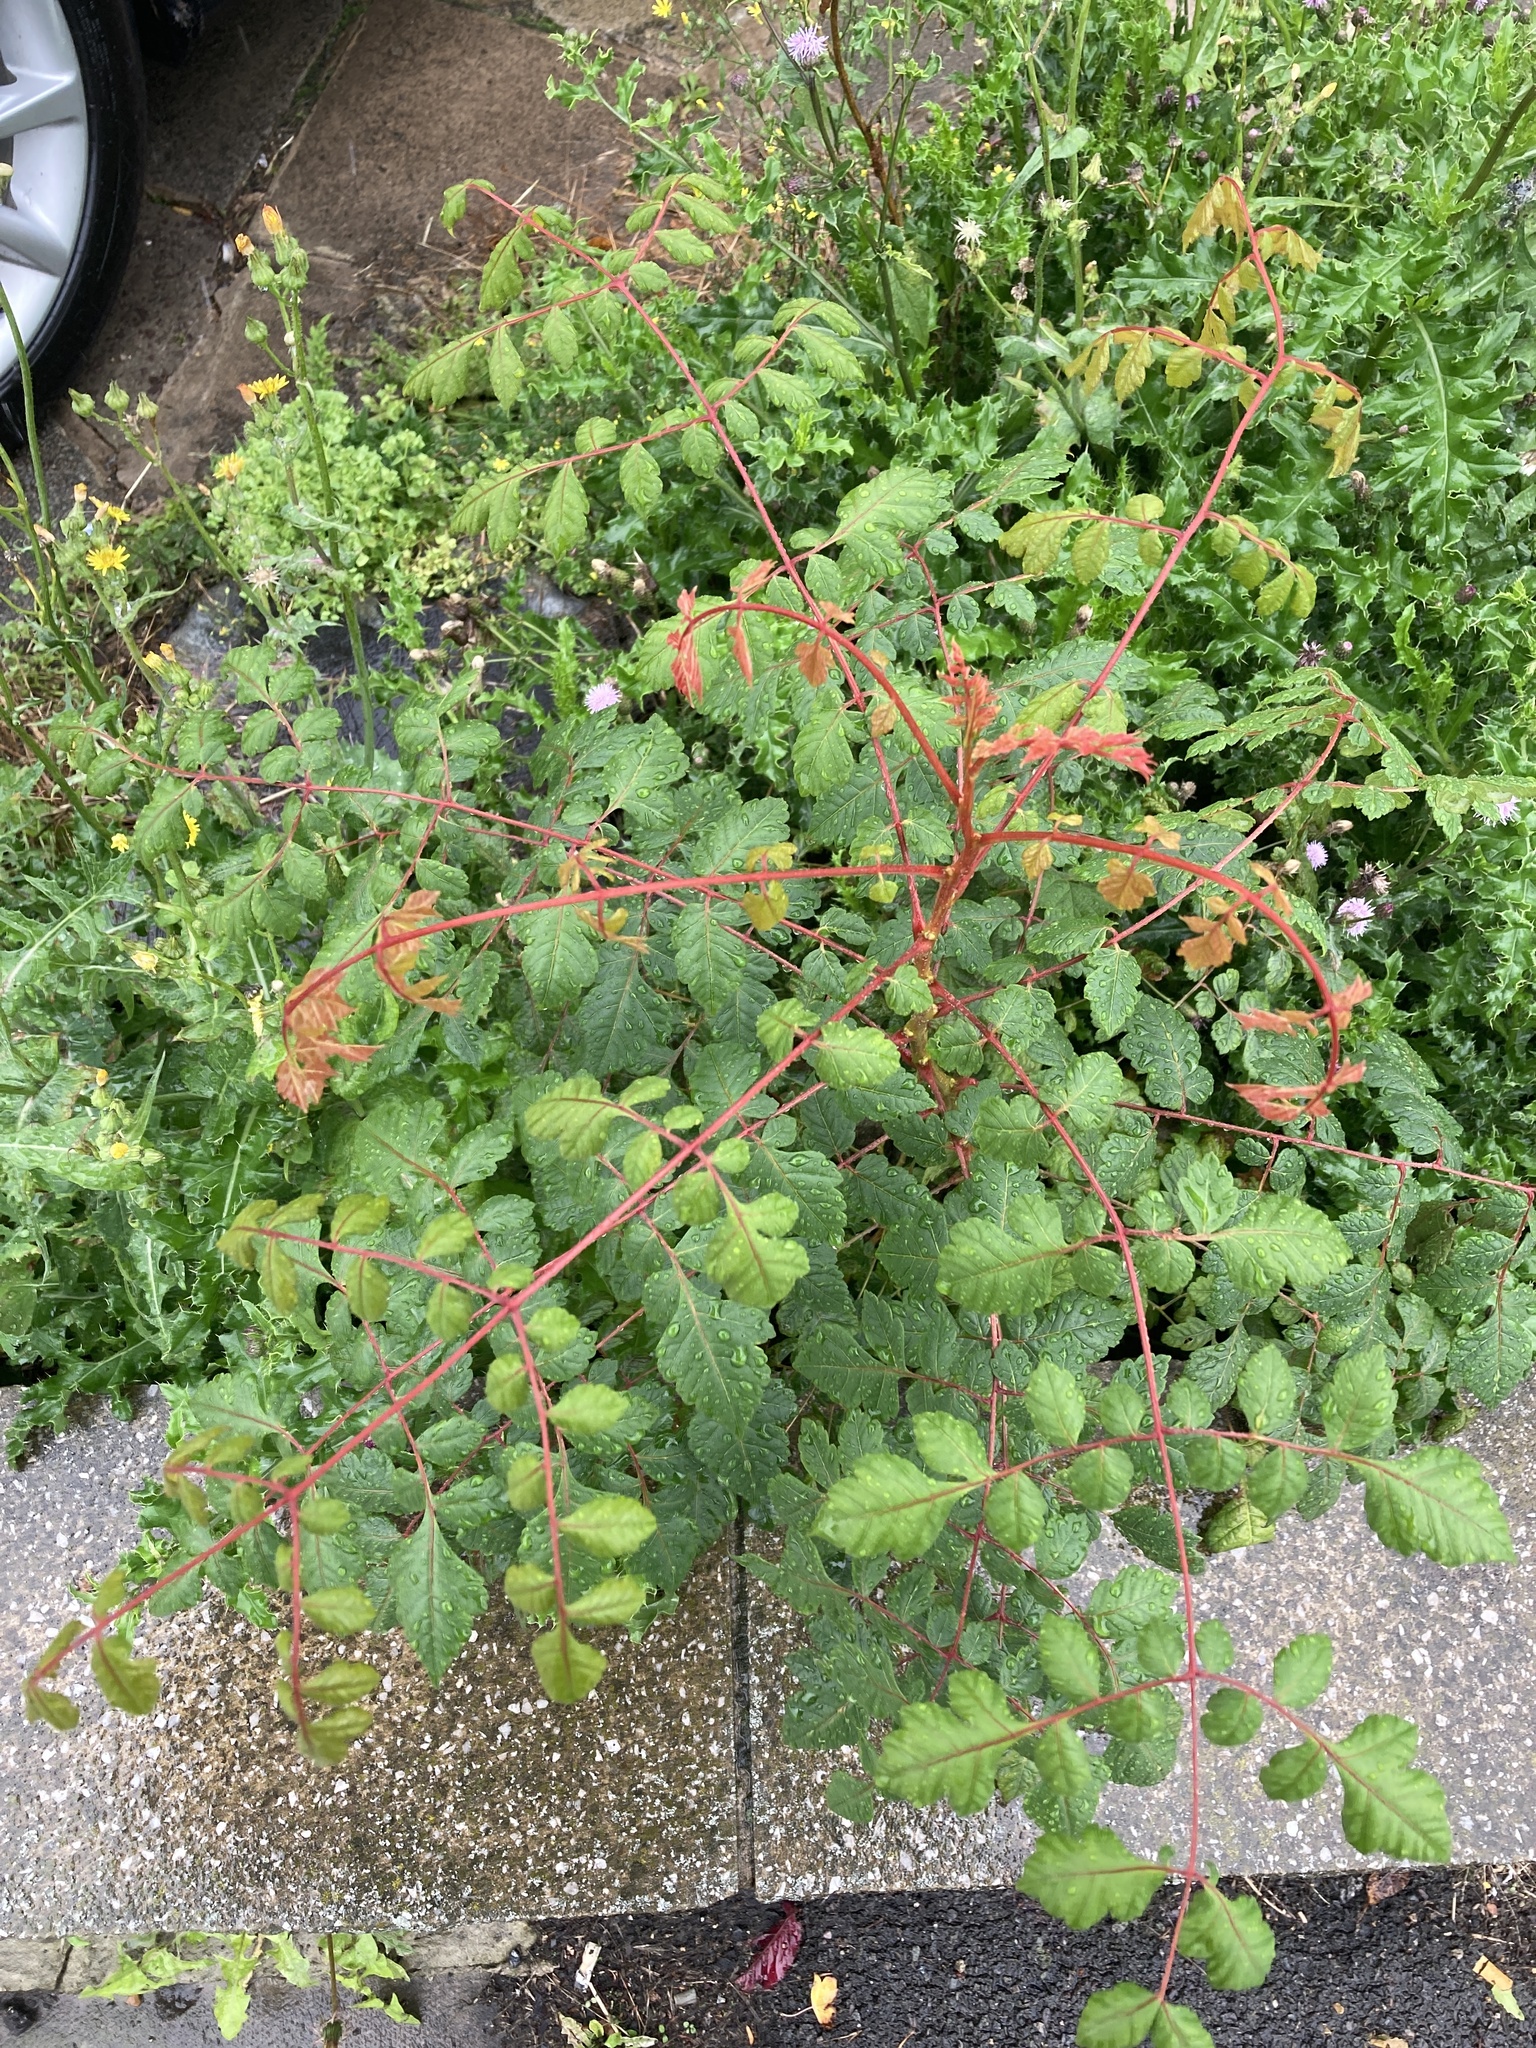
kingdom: Plantae
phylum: Tracheophyta
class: Magnoliopsida
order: Sapindales
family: Sapindaceae
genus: Koelreuteria
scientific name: Koelreuteria paniculata
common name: Pride-of-india
